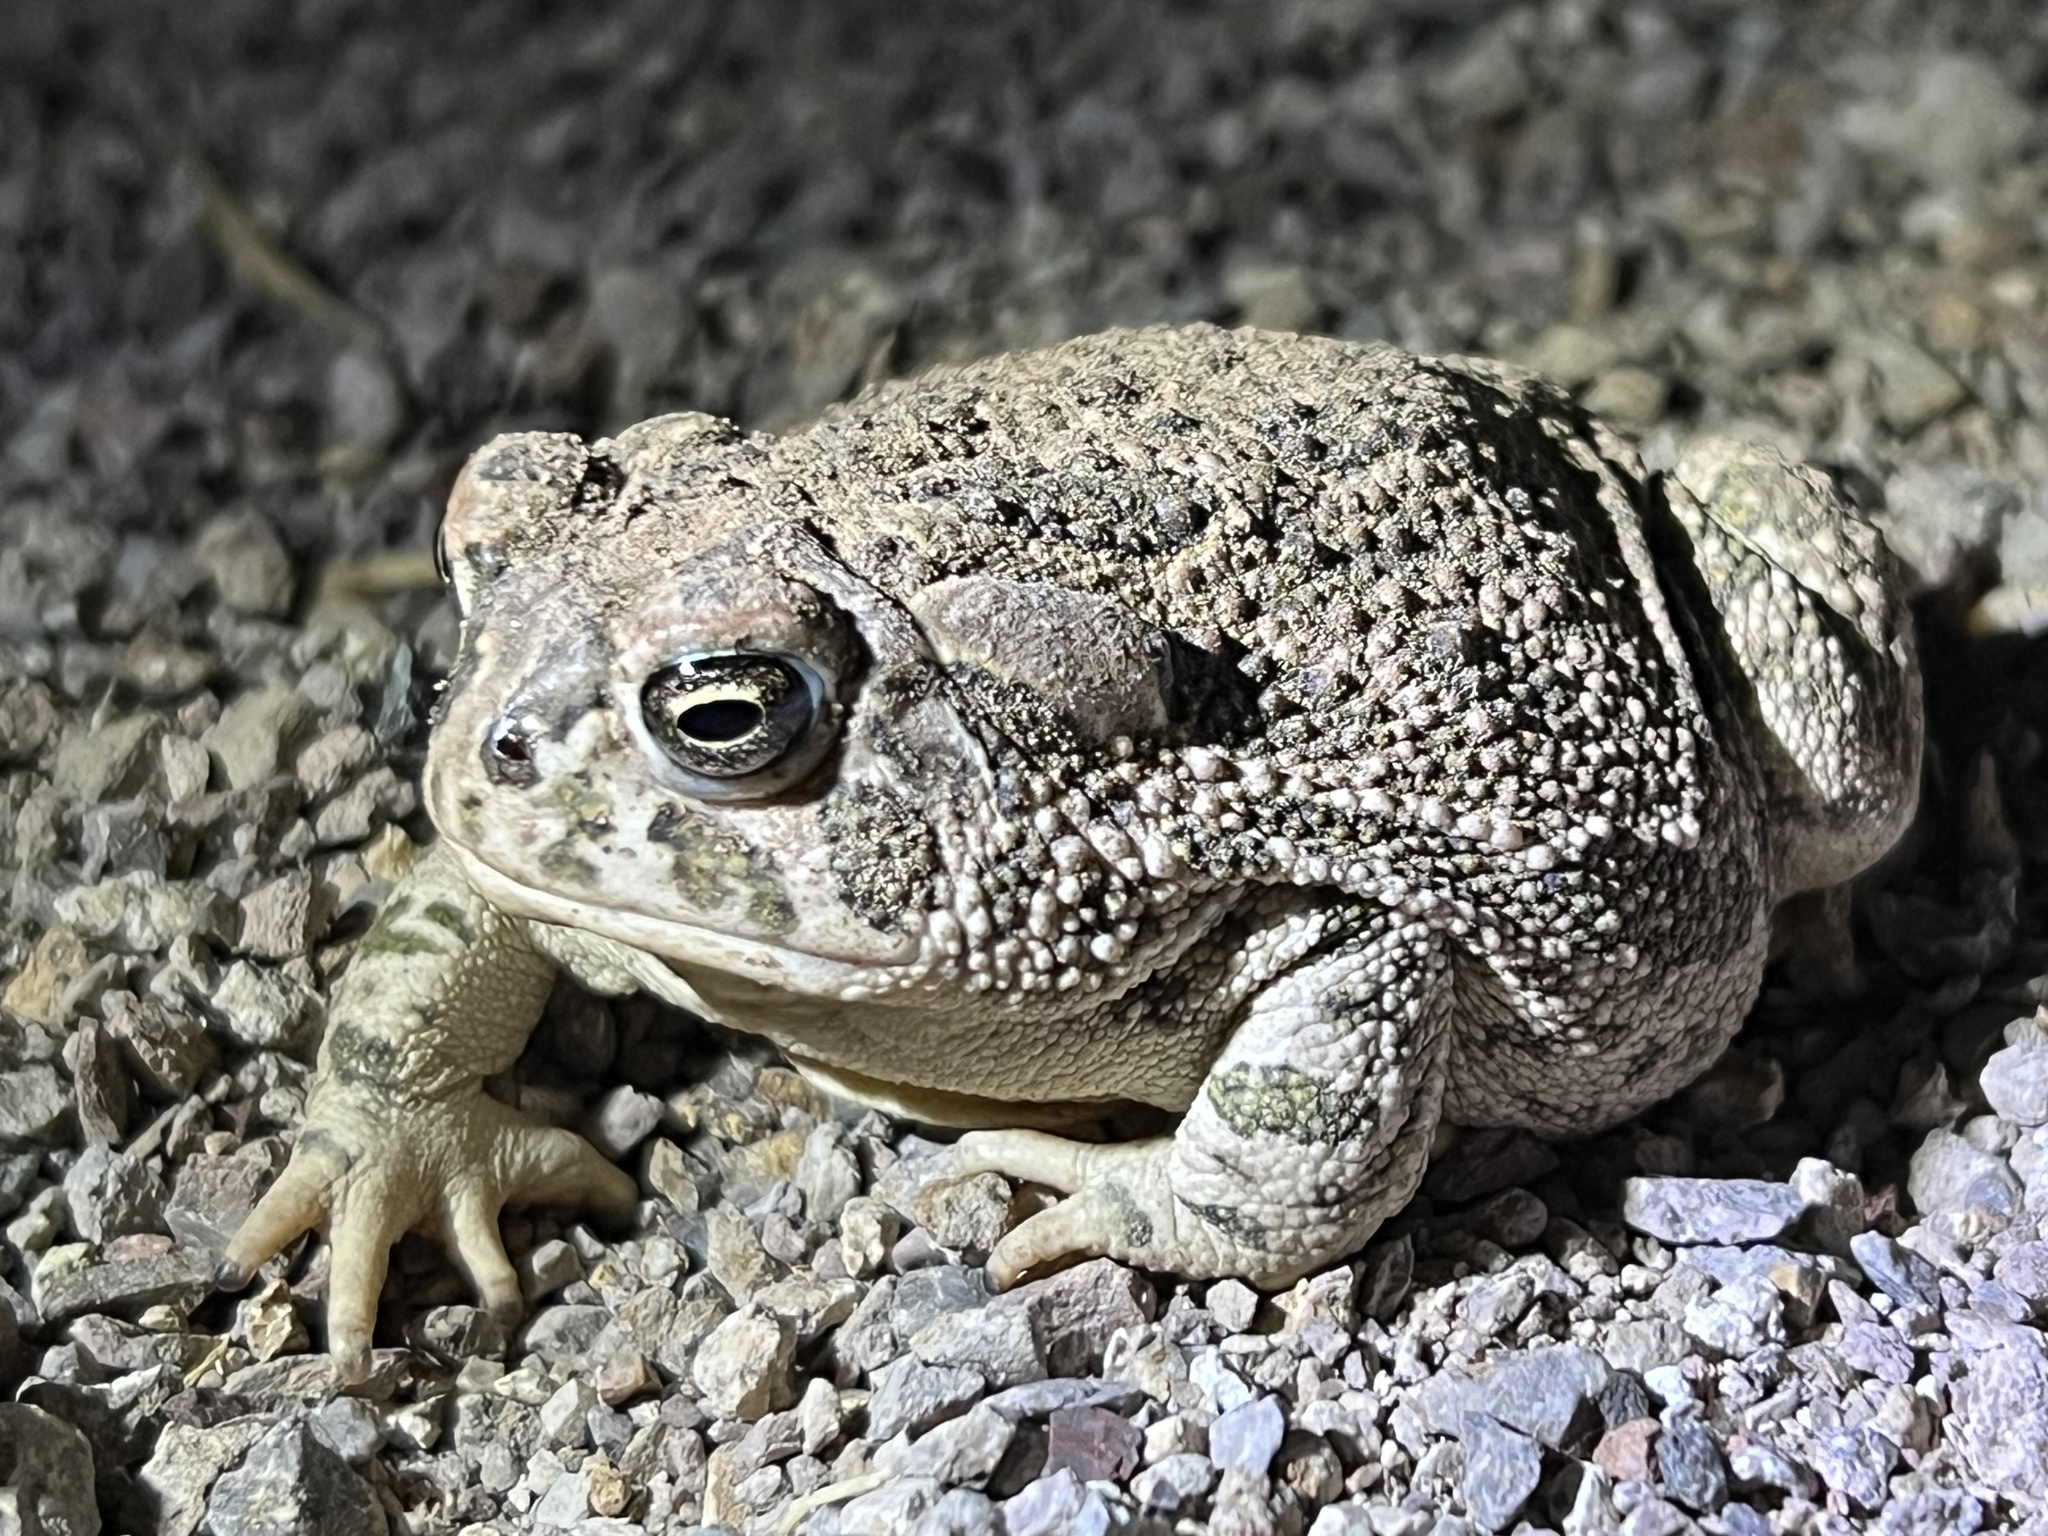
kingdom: Animalia
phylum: Chordata
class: Amphibia
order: Anura
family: Bufonidae
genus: Anaxyrus
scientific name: Anaxyrus cognatus
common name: Great plains toad
